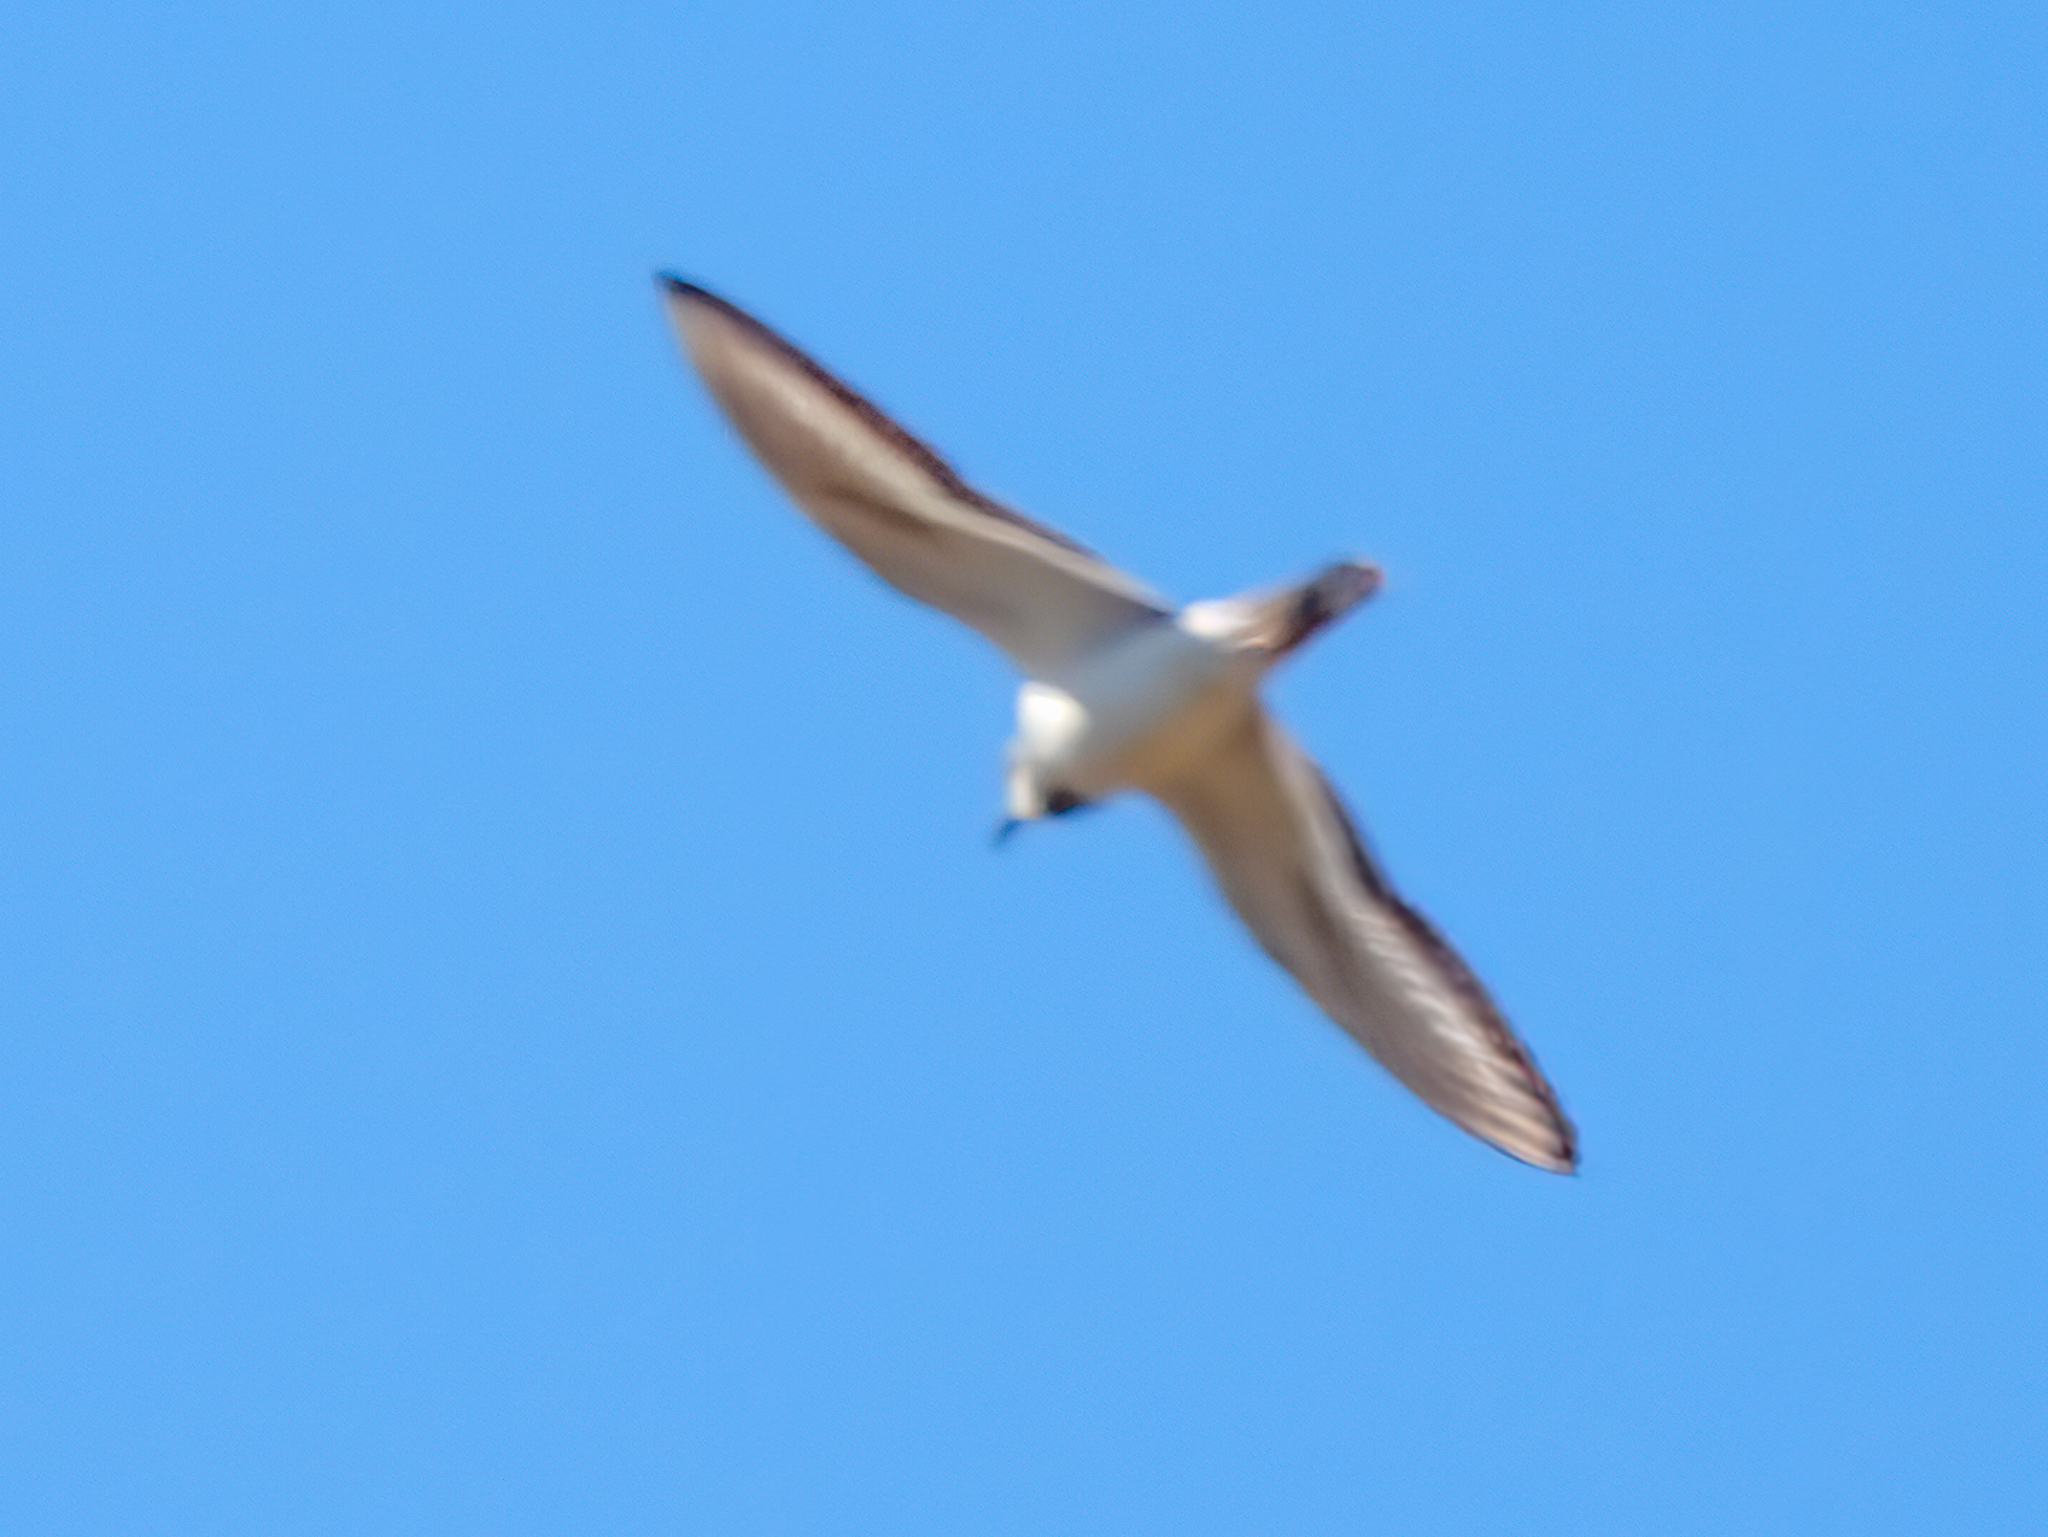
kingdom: Animalia
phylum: Chordata
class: Aves
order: Charadriiformes
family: Charadriidae
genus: Charadrius
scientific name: Charadrius vociferus
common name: Killdeer
